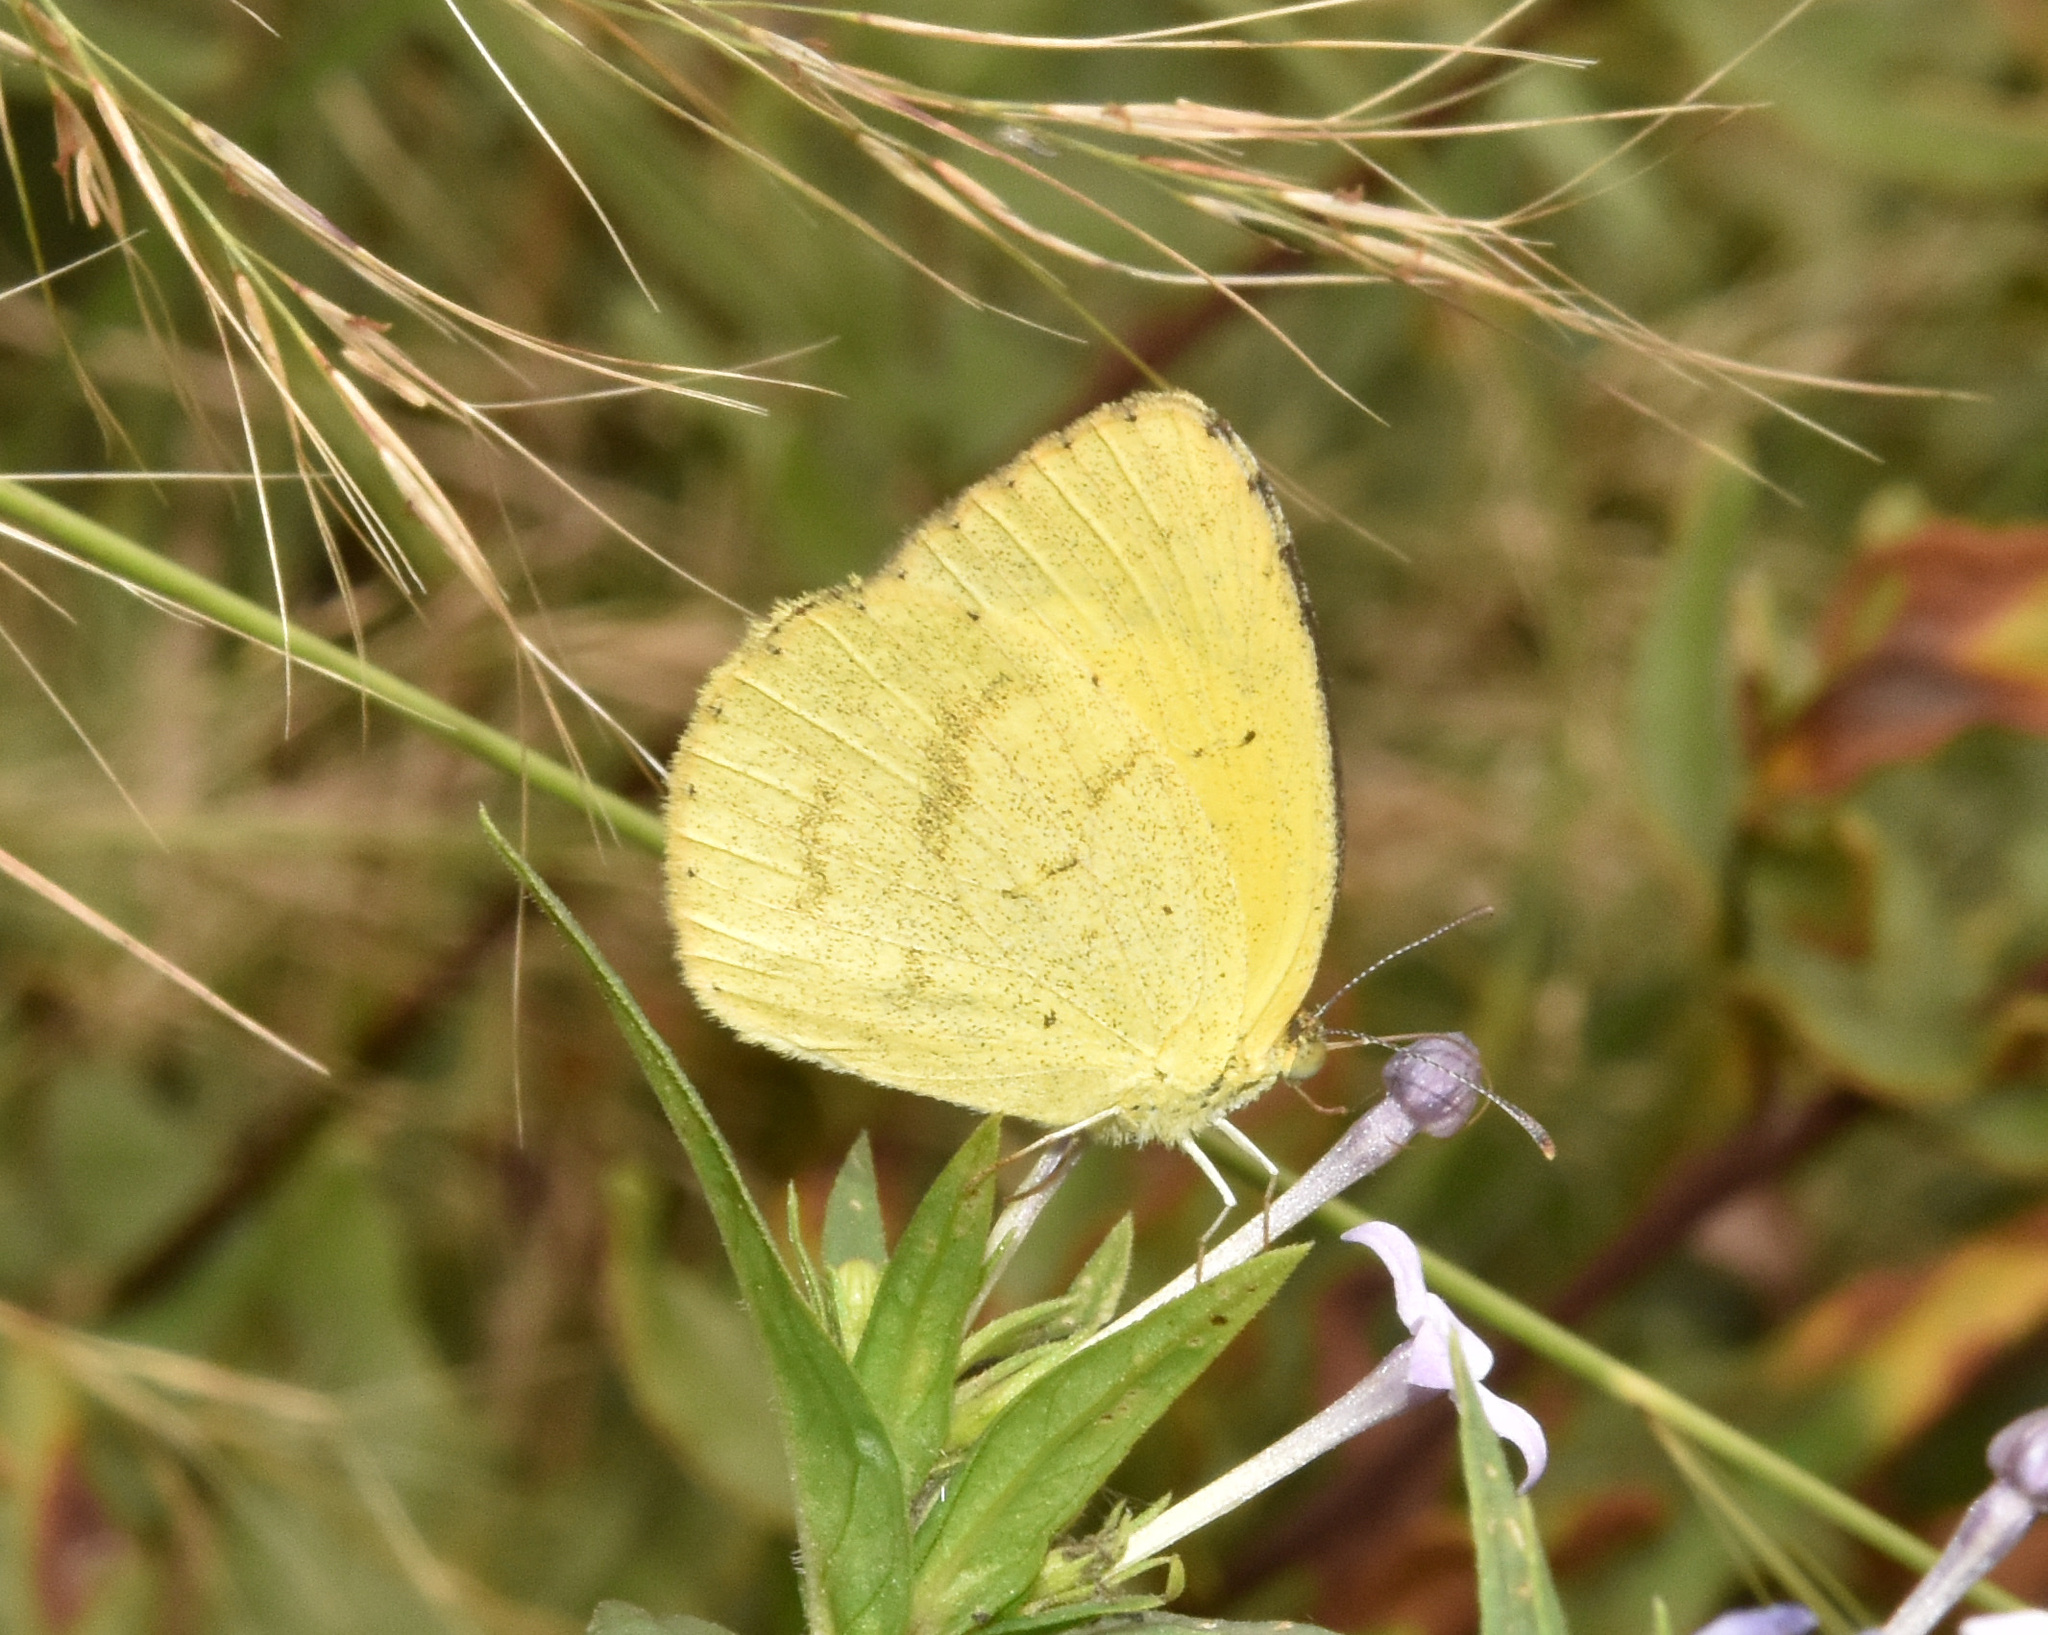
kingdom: Animalia
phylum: Arthropoda
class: Insecta
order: Lepidoptera
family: Pieridae
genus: Eurema
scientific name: Eurema brigitta
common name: Small grass yellow
